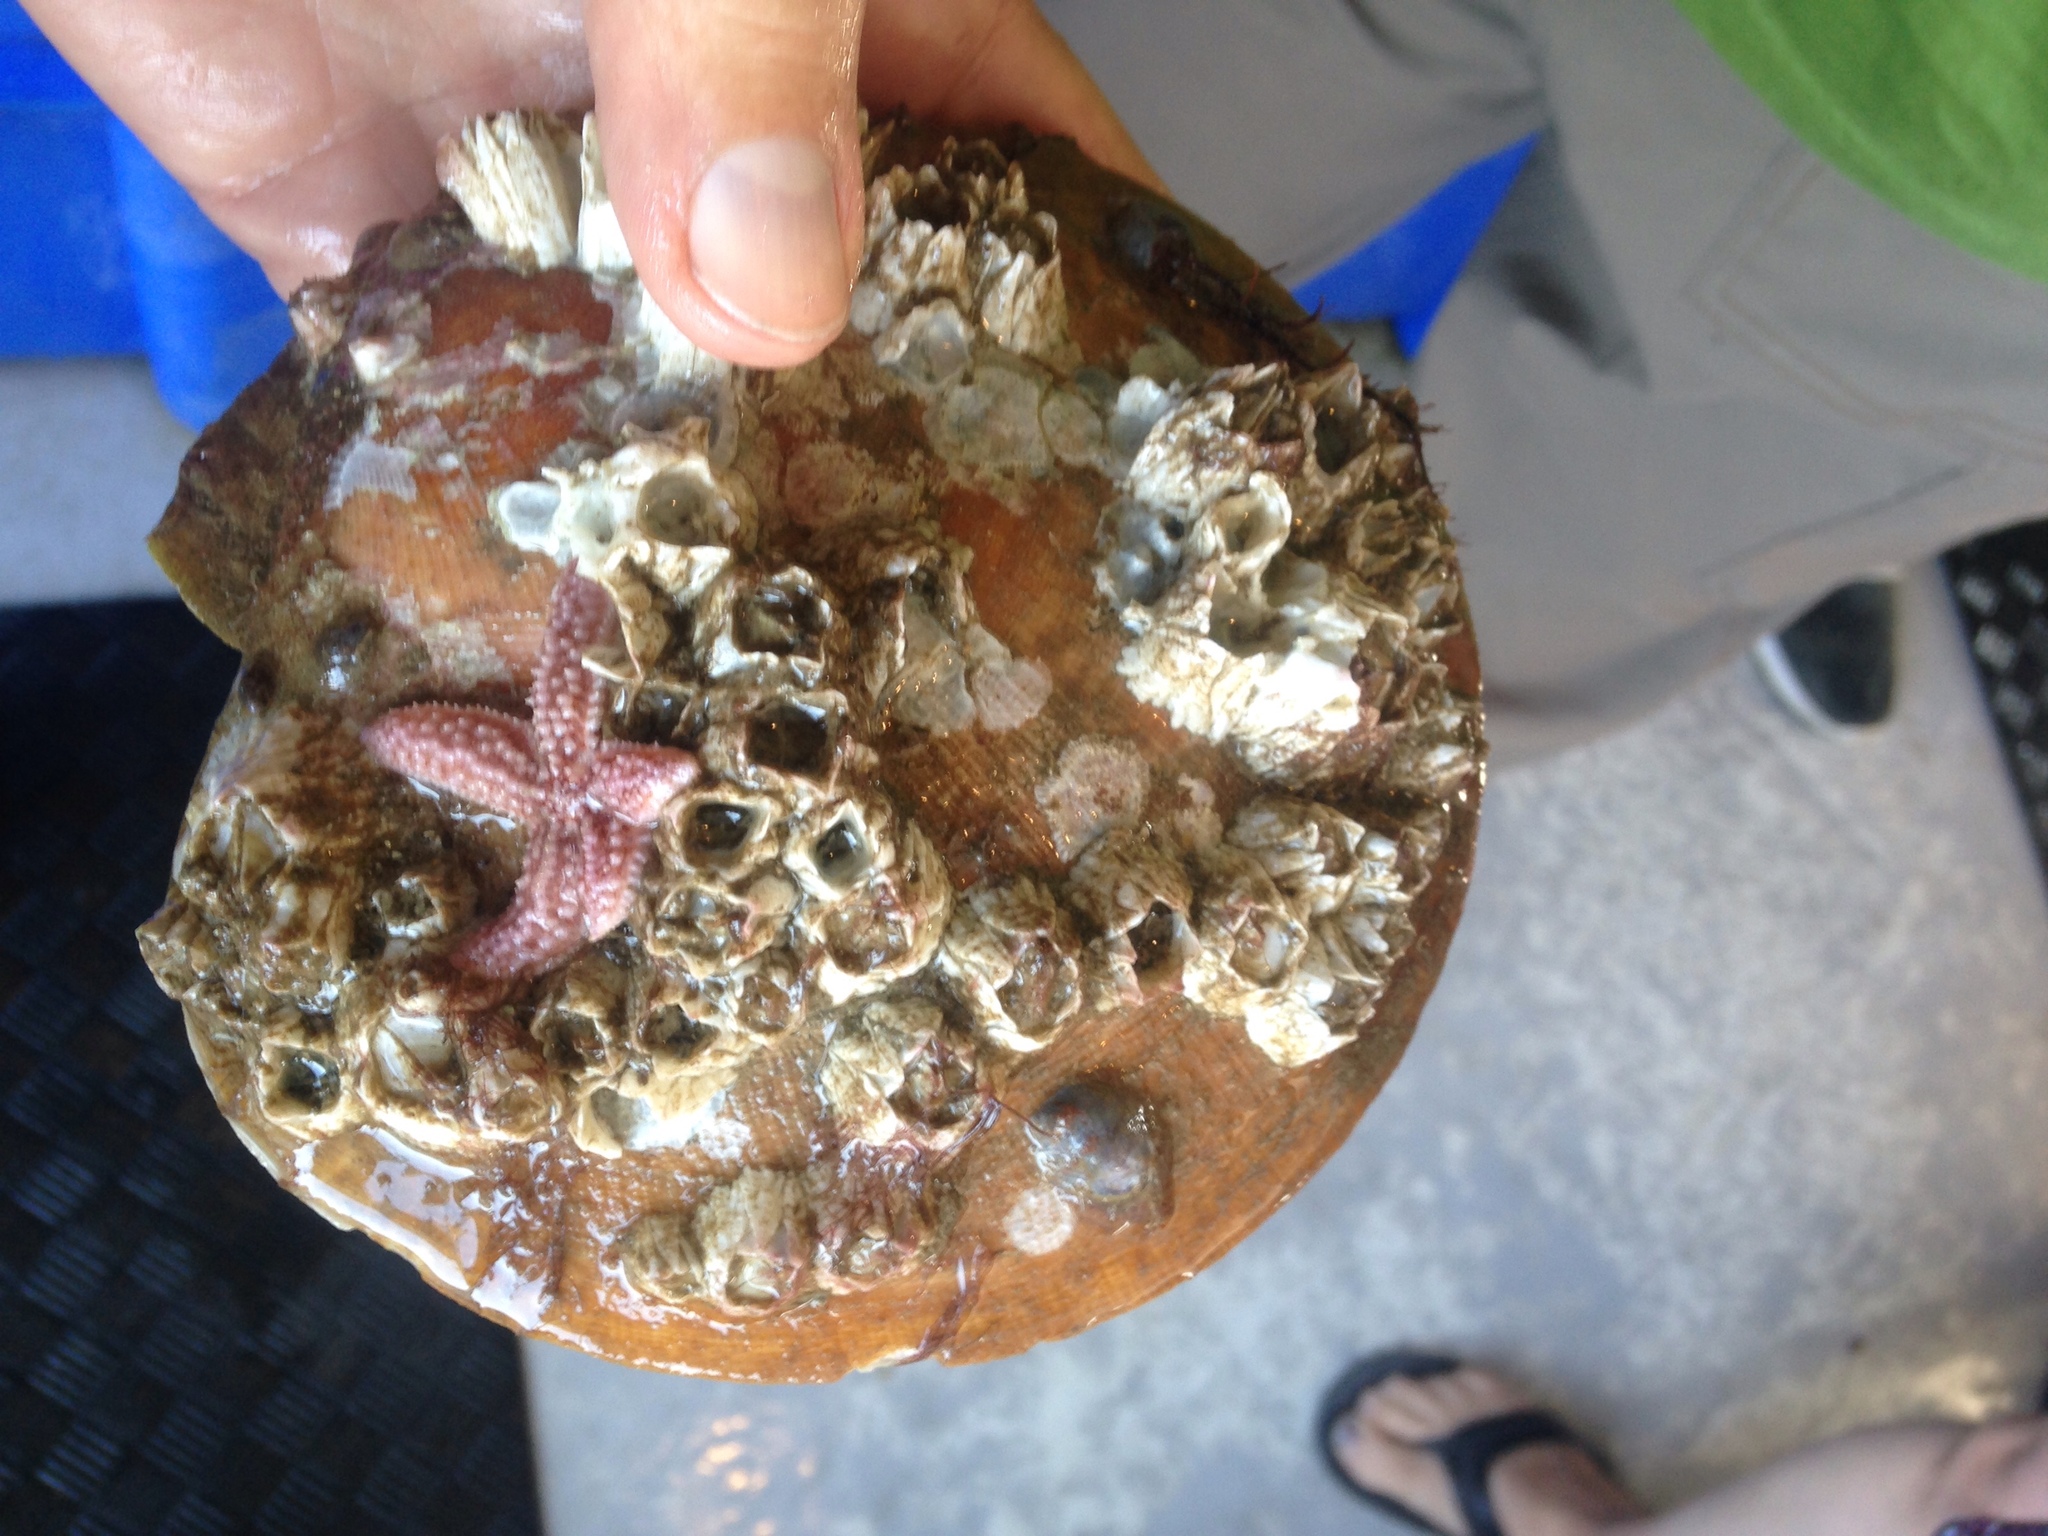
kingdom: Animalia
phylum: Mollusca
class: Bivalvia
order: Pectinida
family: Pectinidae
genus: Placopecten
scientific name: Placopecten magellanicus
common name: American sea scallop
